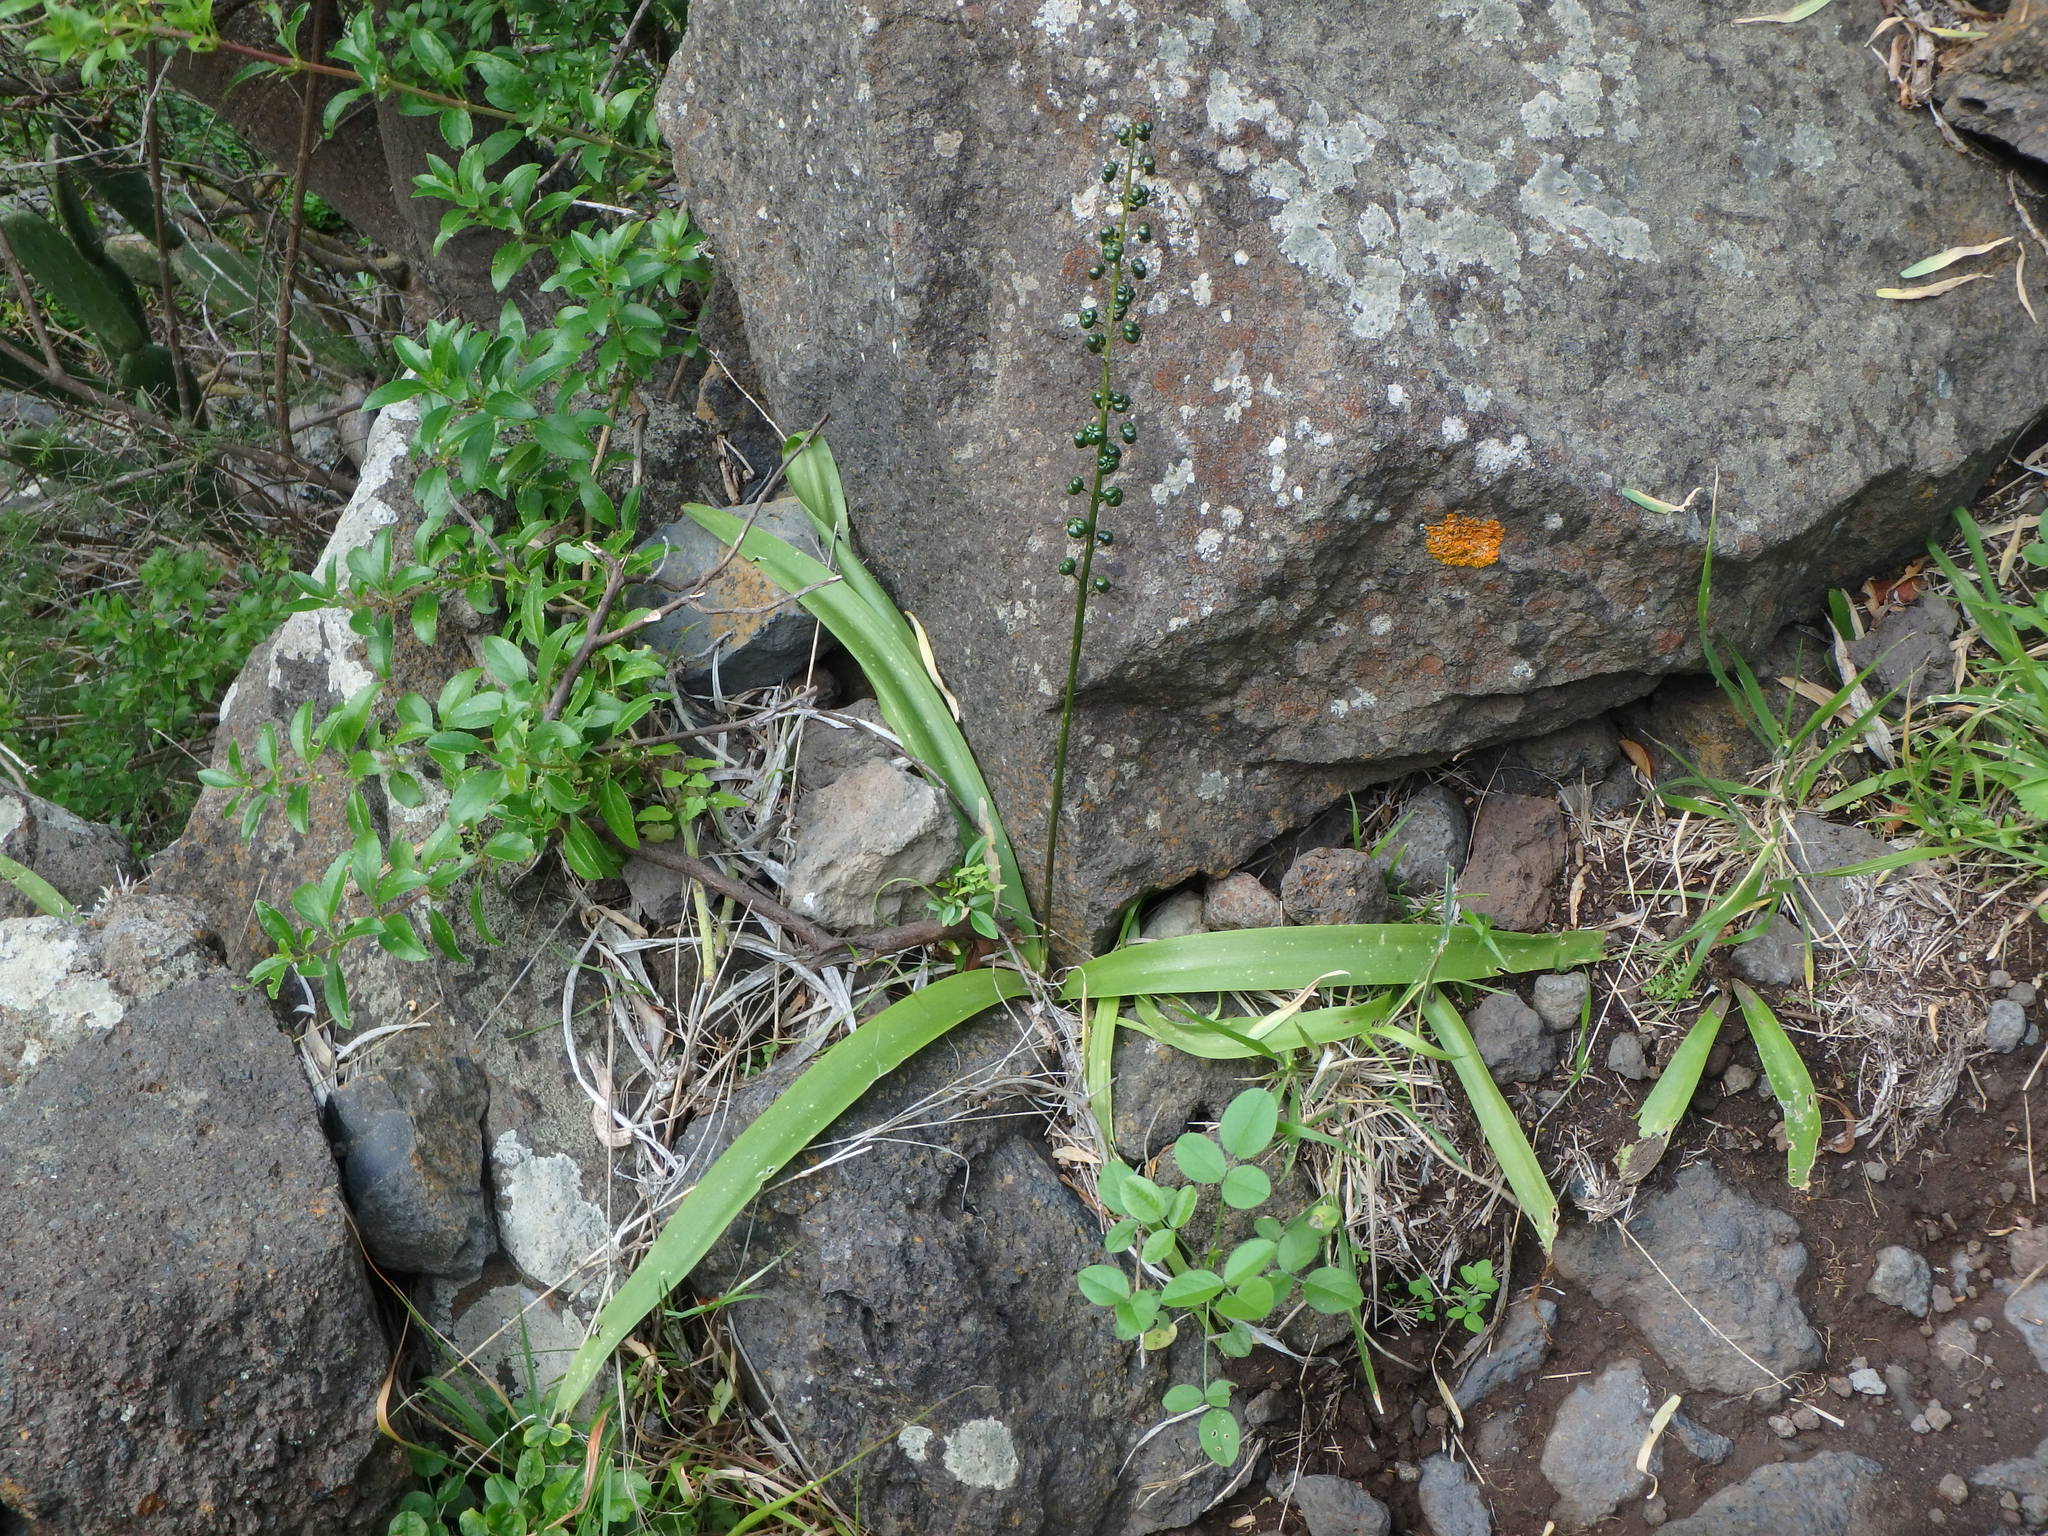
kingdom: Plantae
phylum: Tracheophyta
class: Liliopsida
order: Asparagales
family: Asparagaceae
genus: Scilla
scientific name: Scilla haemorrhoidalis
